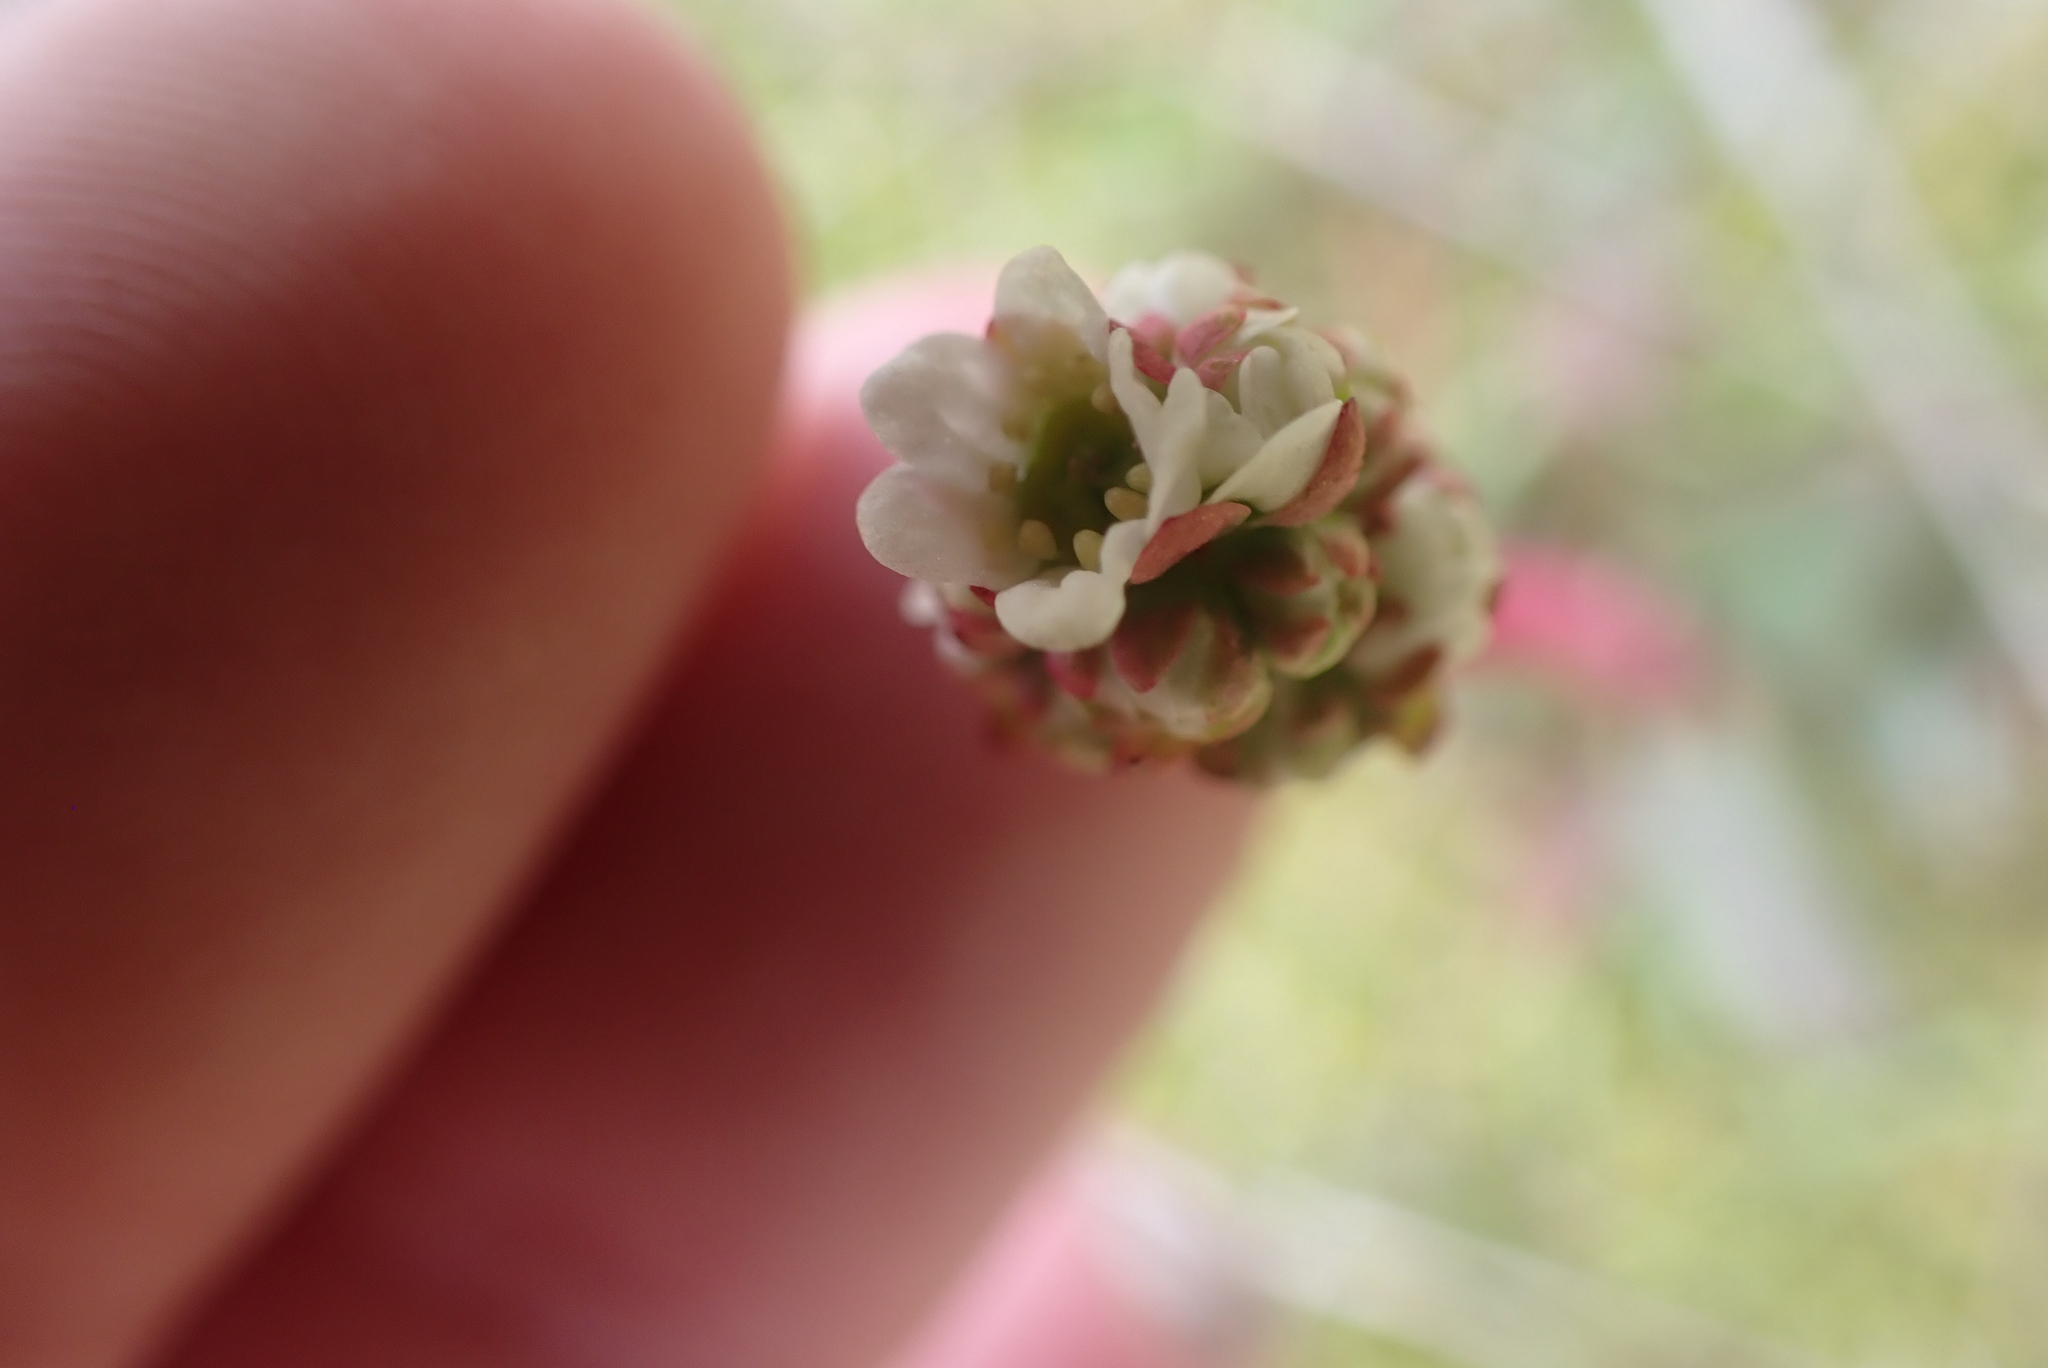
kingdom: Plantae
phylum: Tracheophyta
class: Magnoliopsida
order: Saxifragales
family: Saxifragaceae
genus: Micranthes
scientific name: Micranthes integrifolia
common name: Wholeleaf saxifrage
